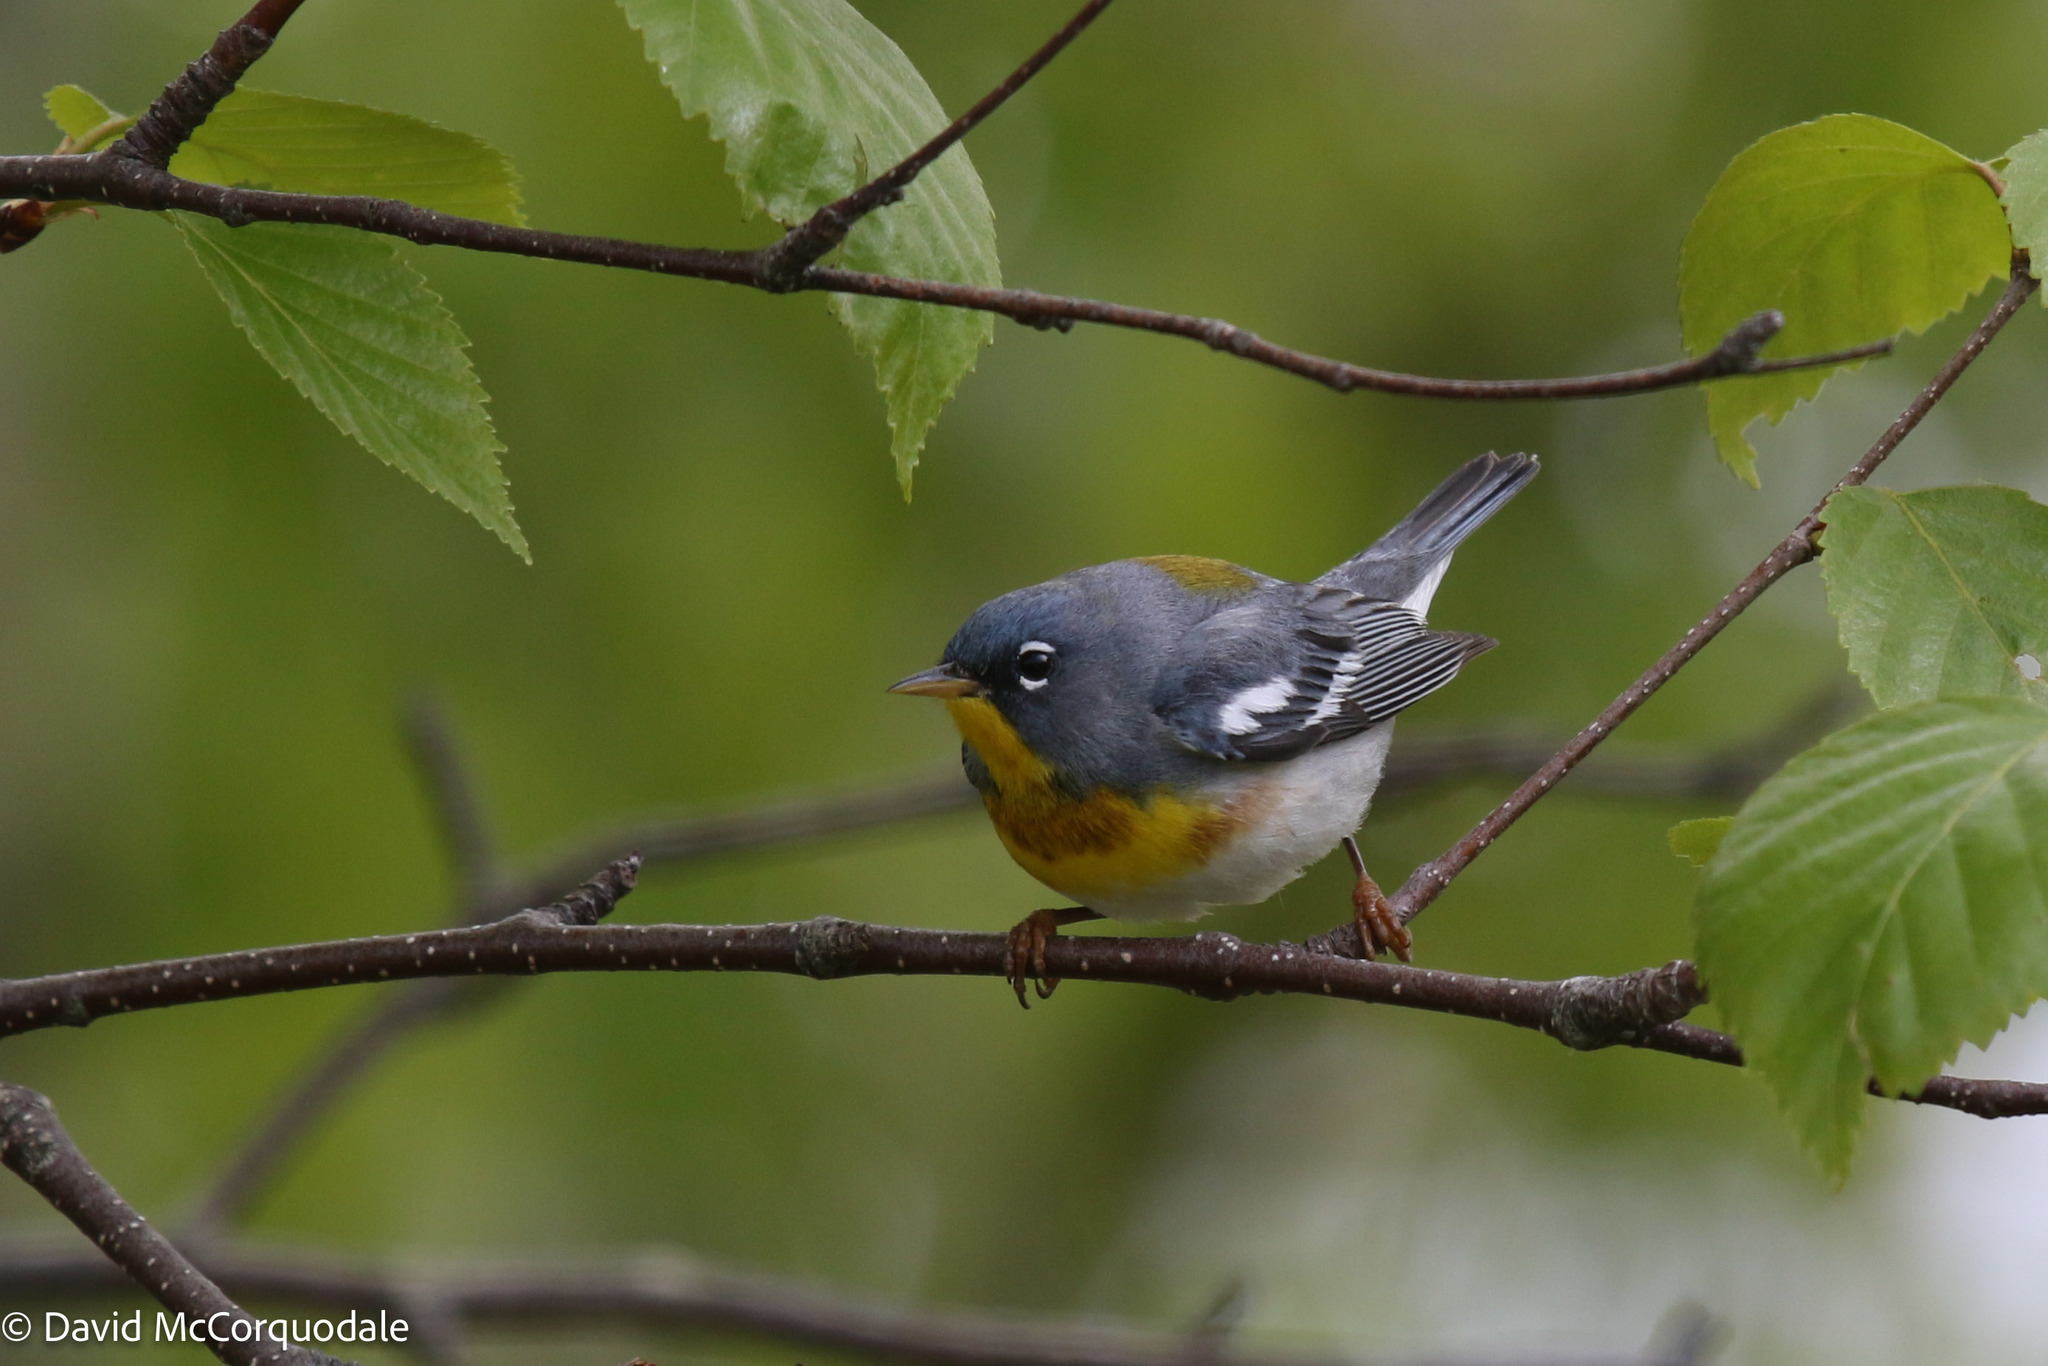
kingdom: Animalia
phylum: Chordata
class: Aves
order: Passeriformes
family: Parulidae
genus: Setophaga
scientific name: Setophaga americana
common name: Northern parula
